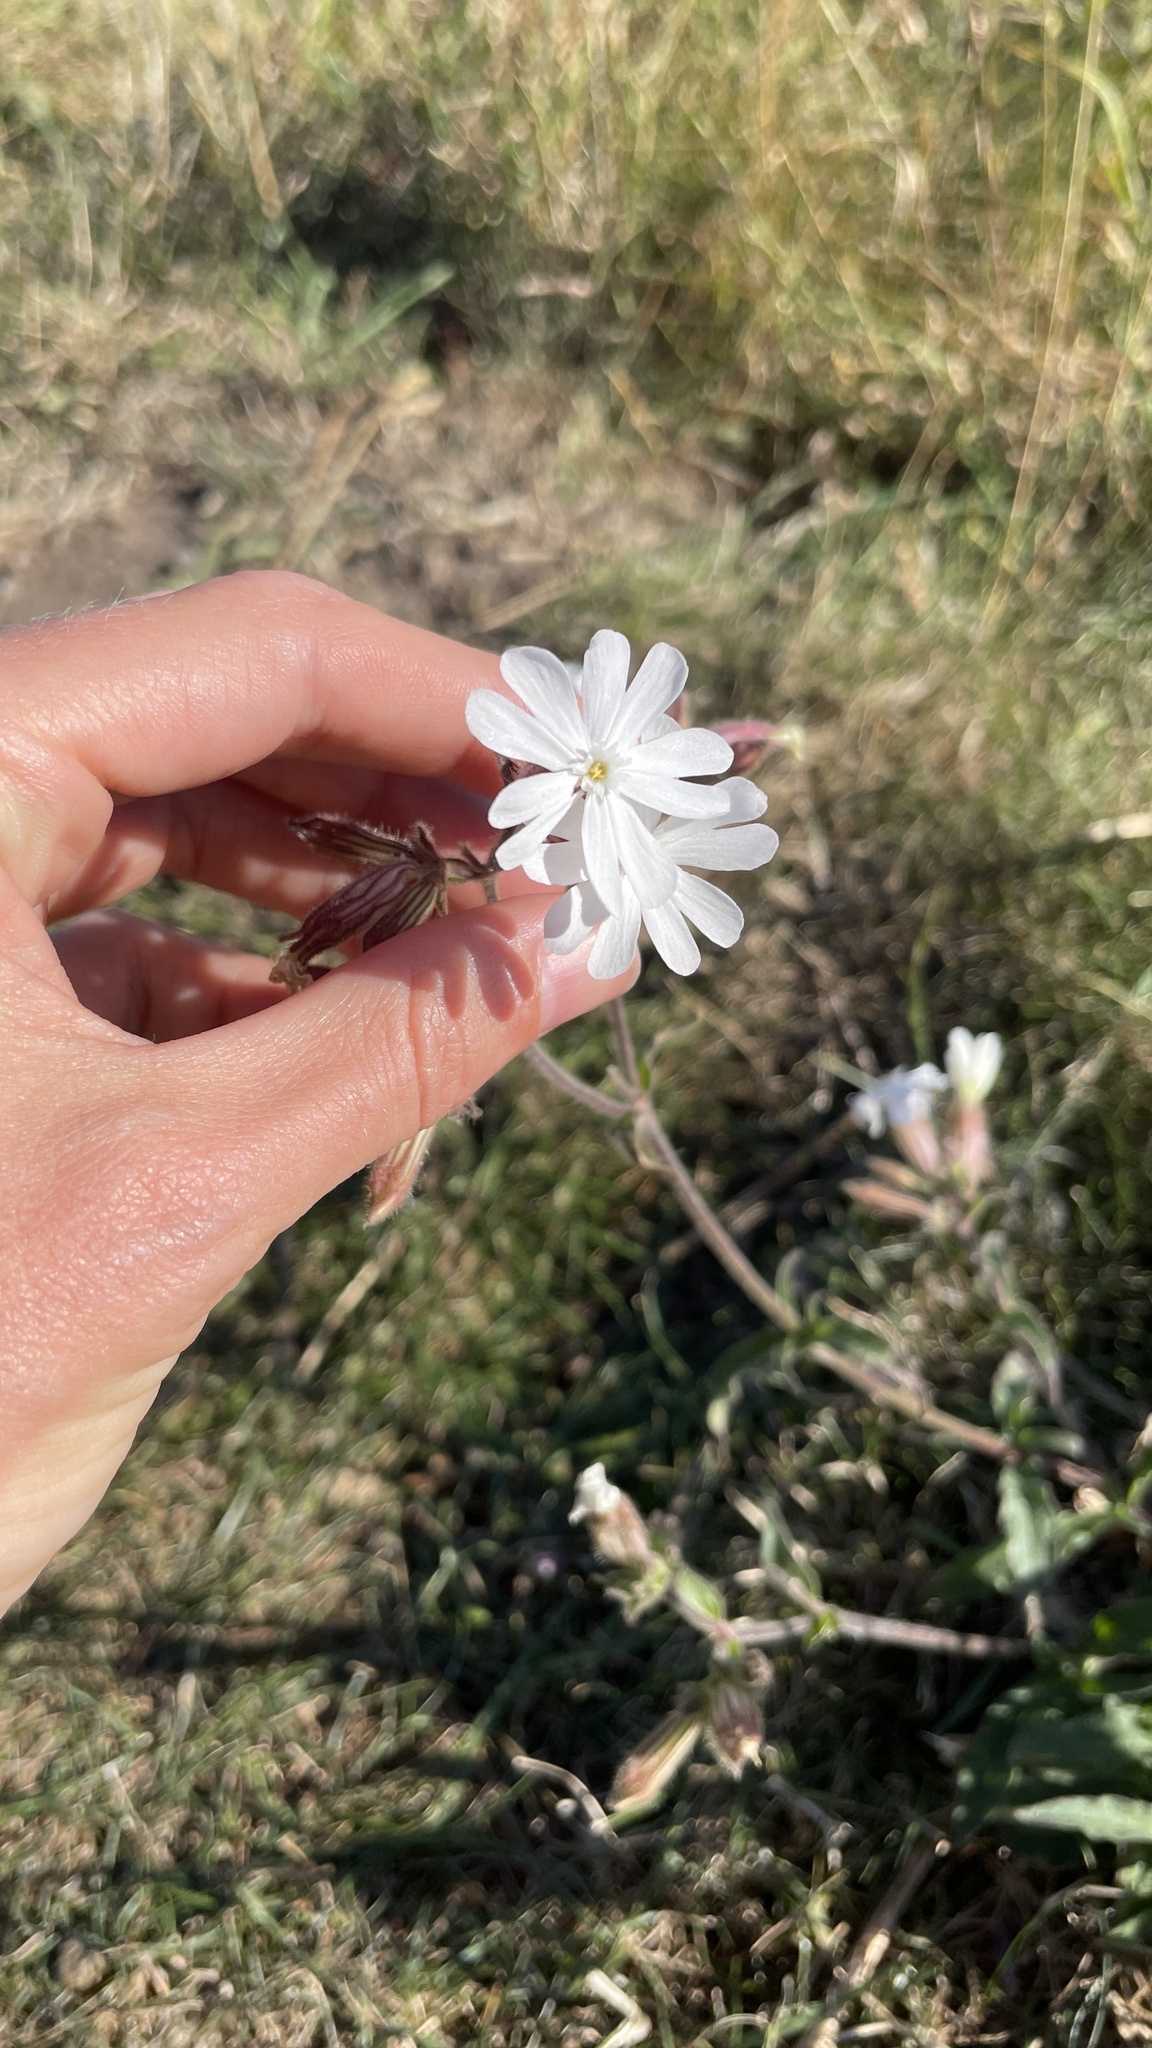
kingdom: Plantae
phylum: Tracheophyta
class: Magnoliopsida
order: Caryophyllales
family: Caryophyllaceae
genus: Silene
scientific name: Silene latifolia
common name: White campion
